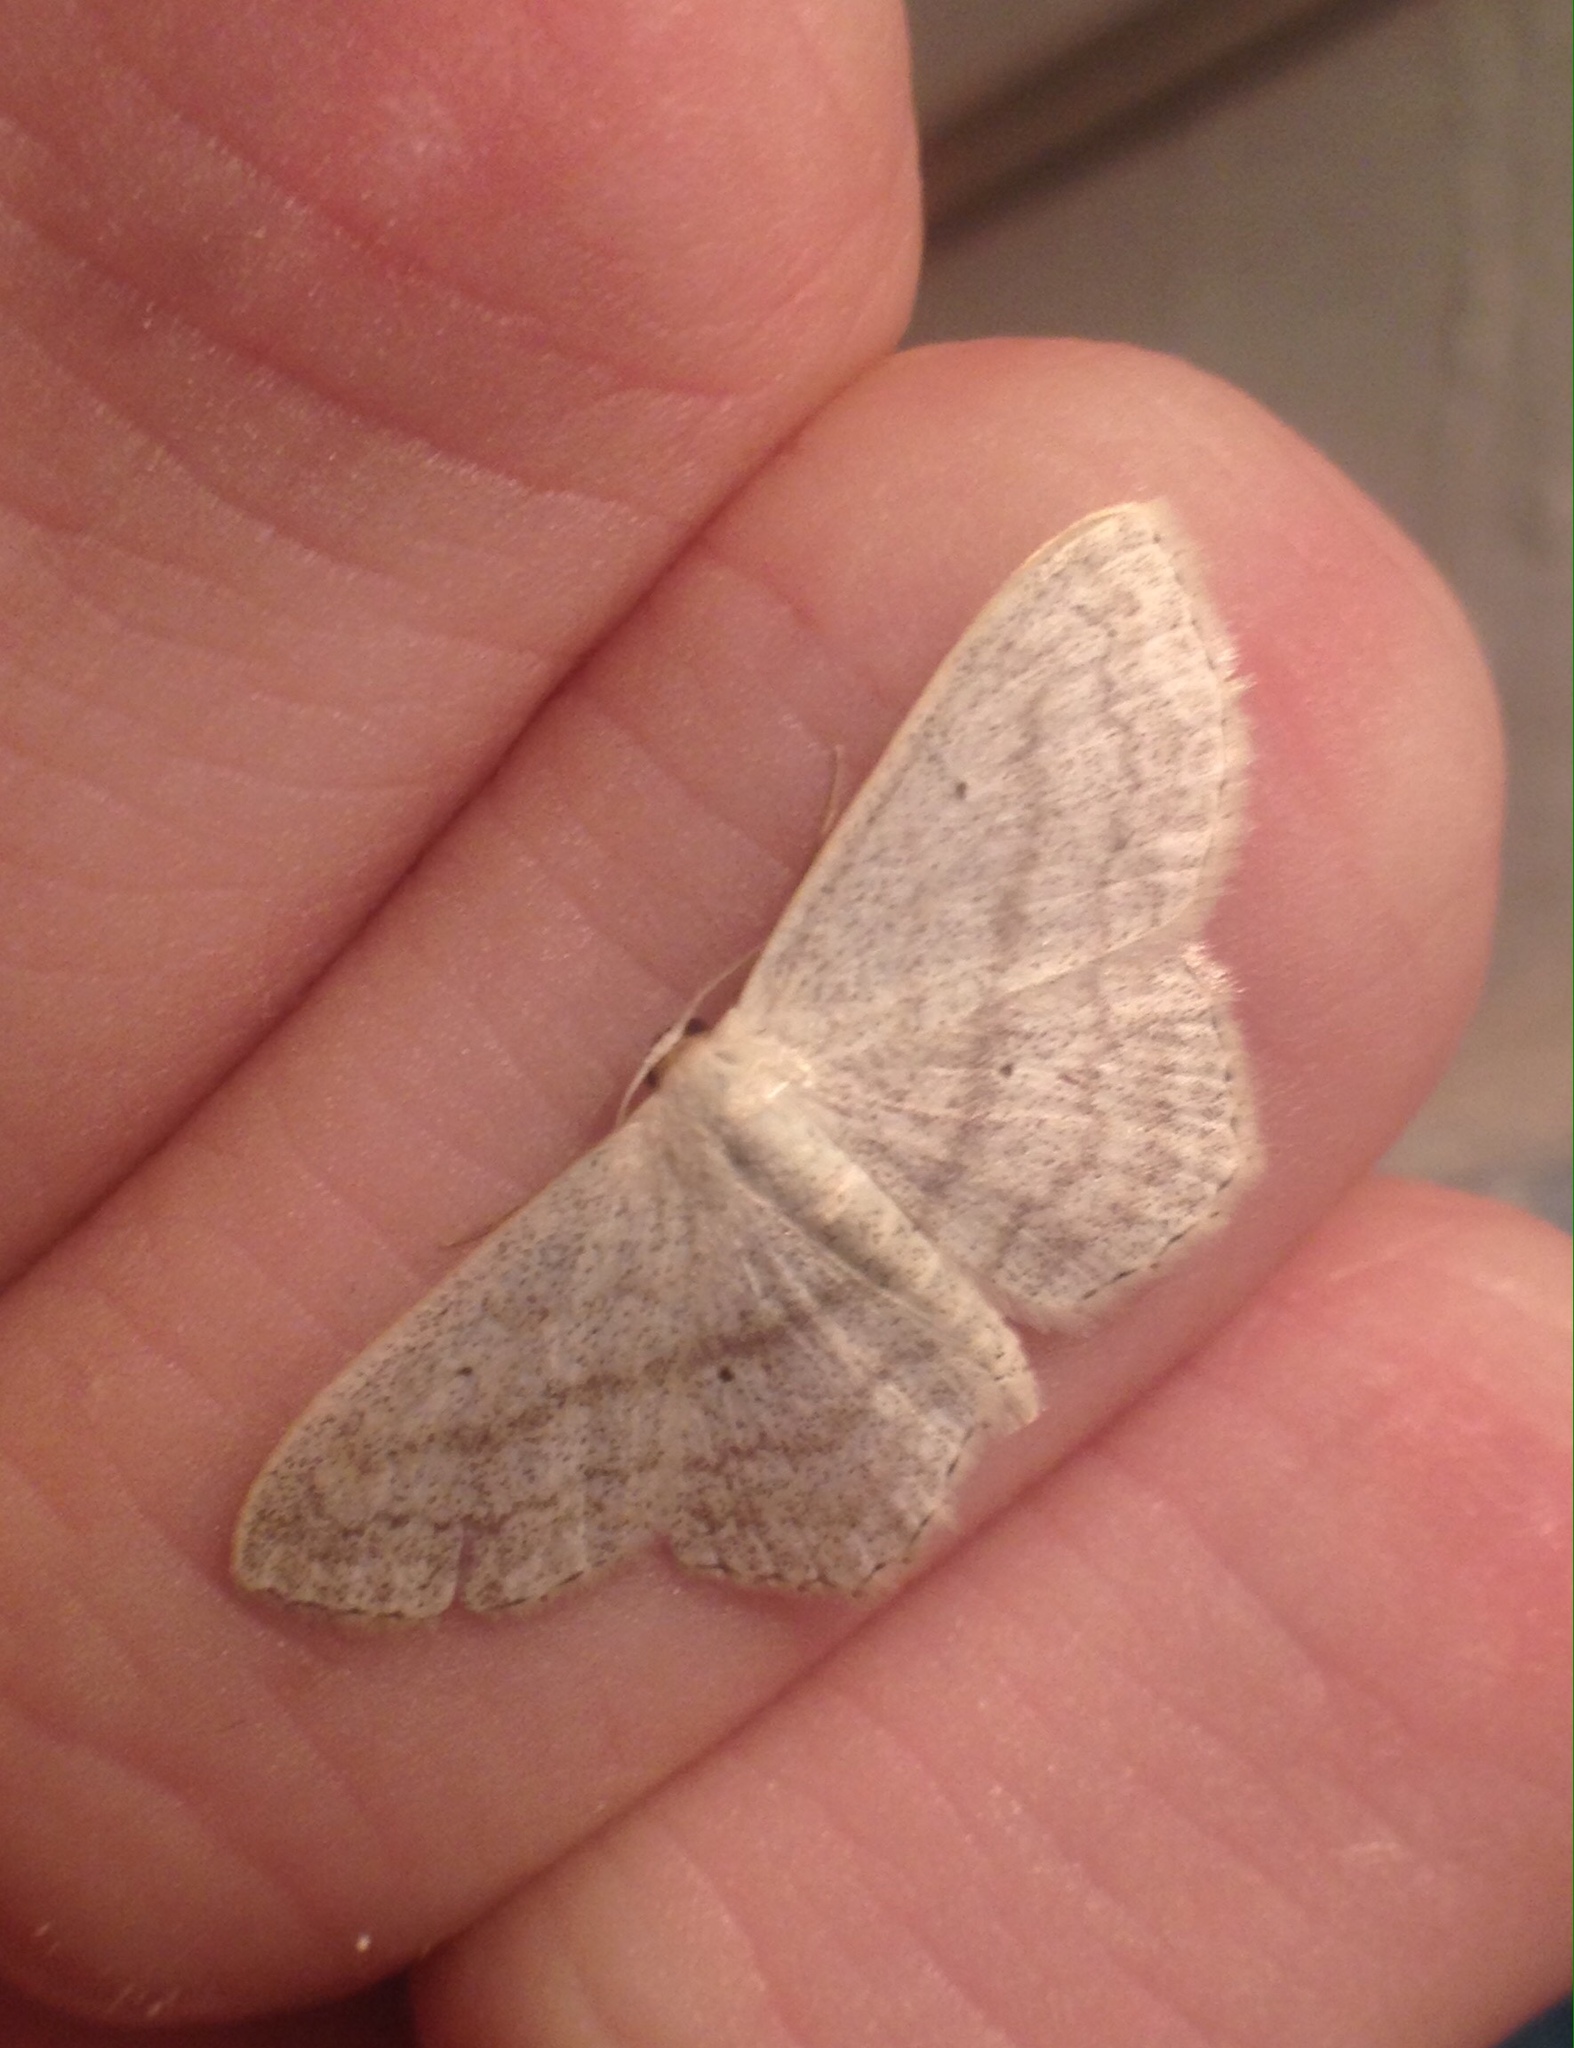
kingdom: Animalia
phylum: Arthropoda
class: Insecta
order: Lepidoptera
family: Geometridae
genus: Scopula
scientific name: Scopula nigropunctata
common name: Sub-angled wave
